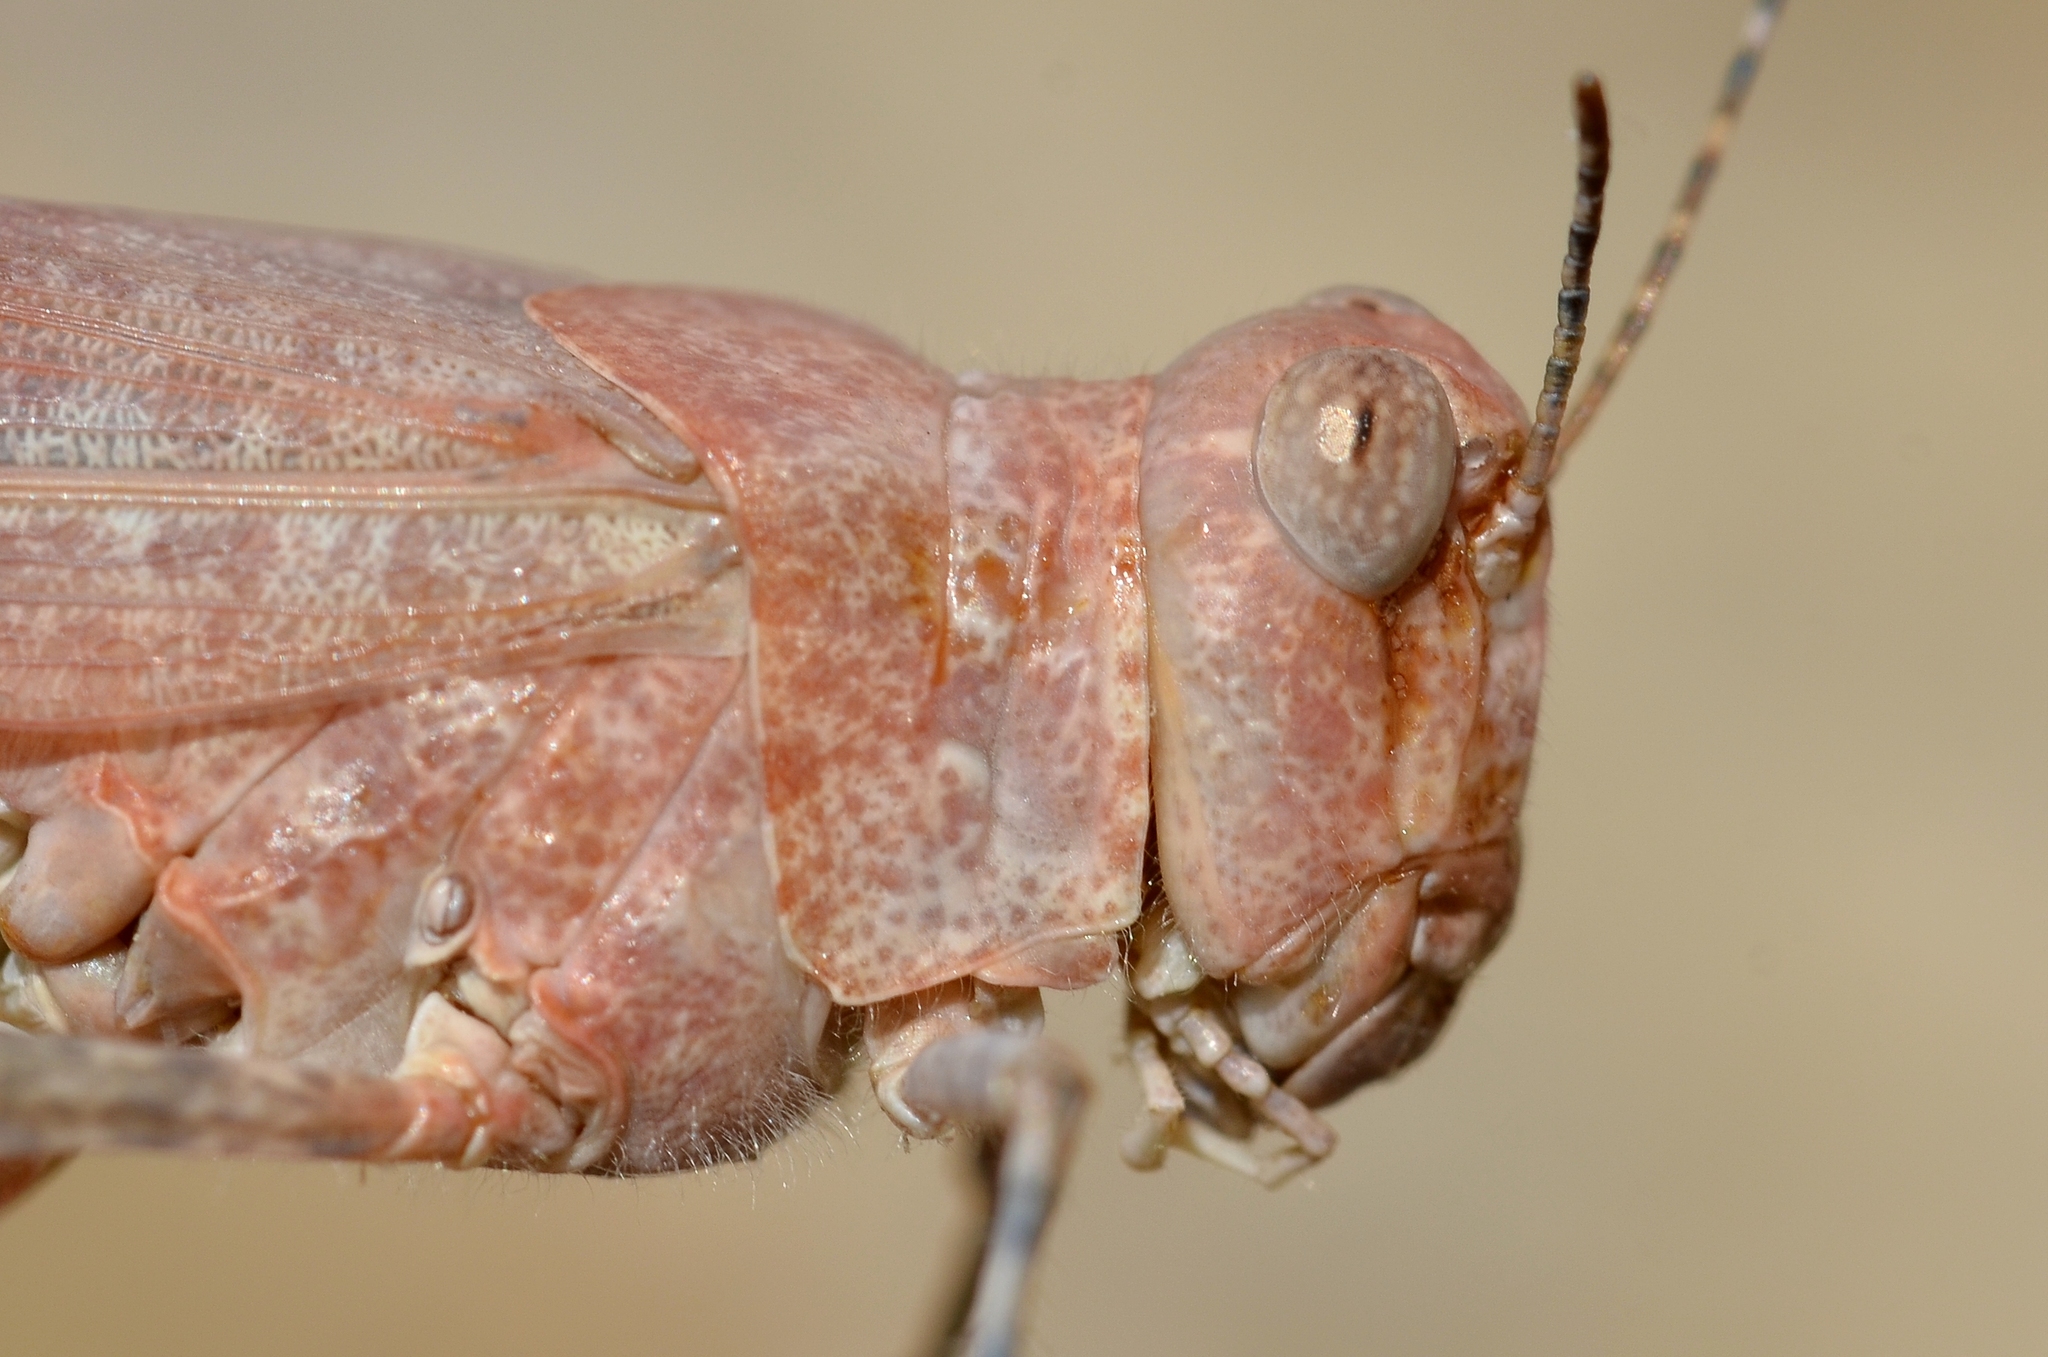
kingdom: Animalia
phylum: Arthropoda
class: Insecta
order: Orthoptera
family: Acrididae
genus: Sphingonotus
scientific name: Sphingonotus caerulans
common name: Blue-winged locust
